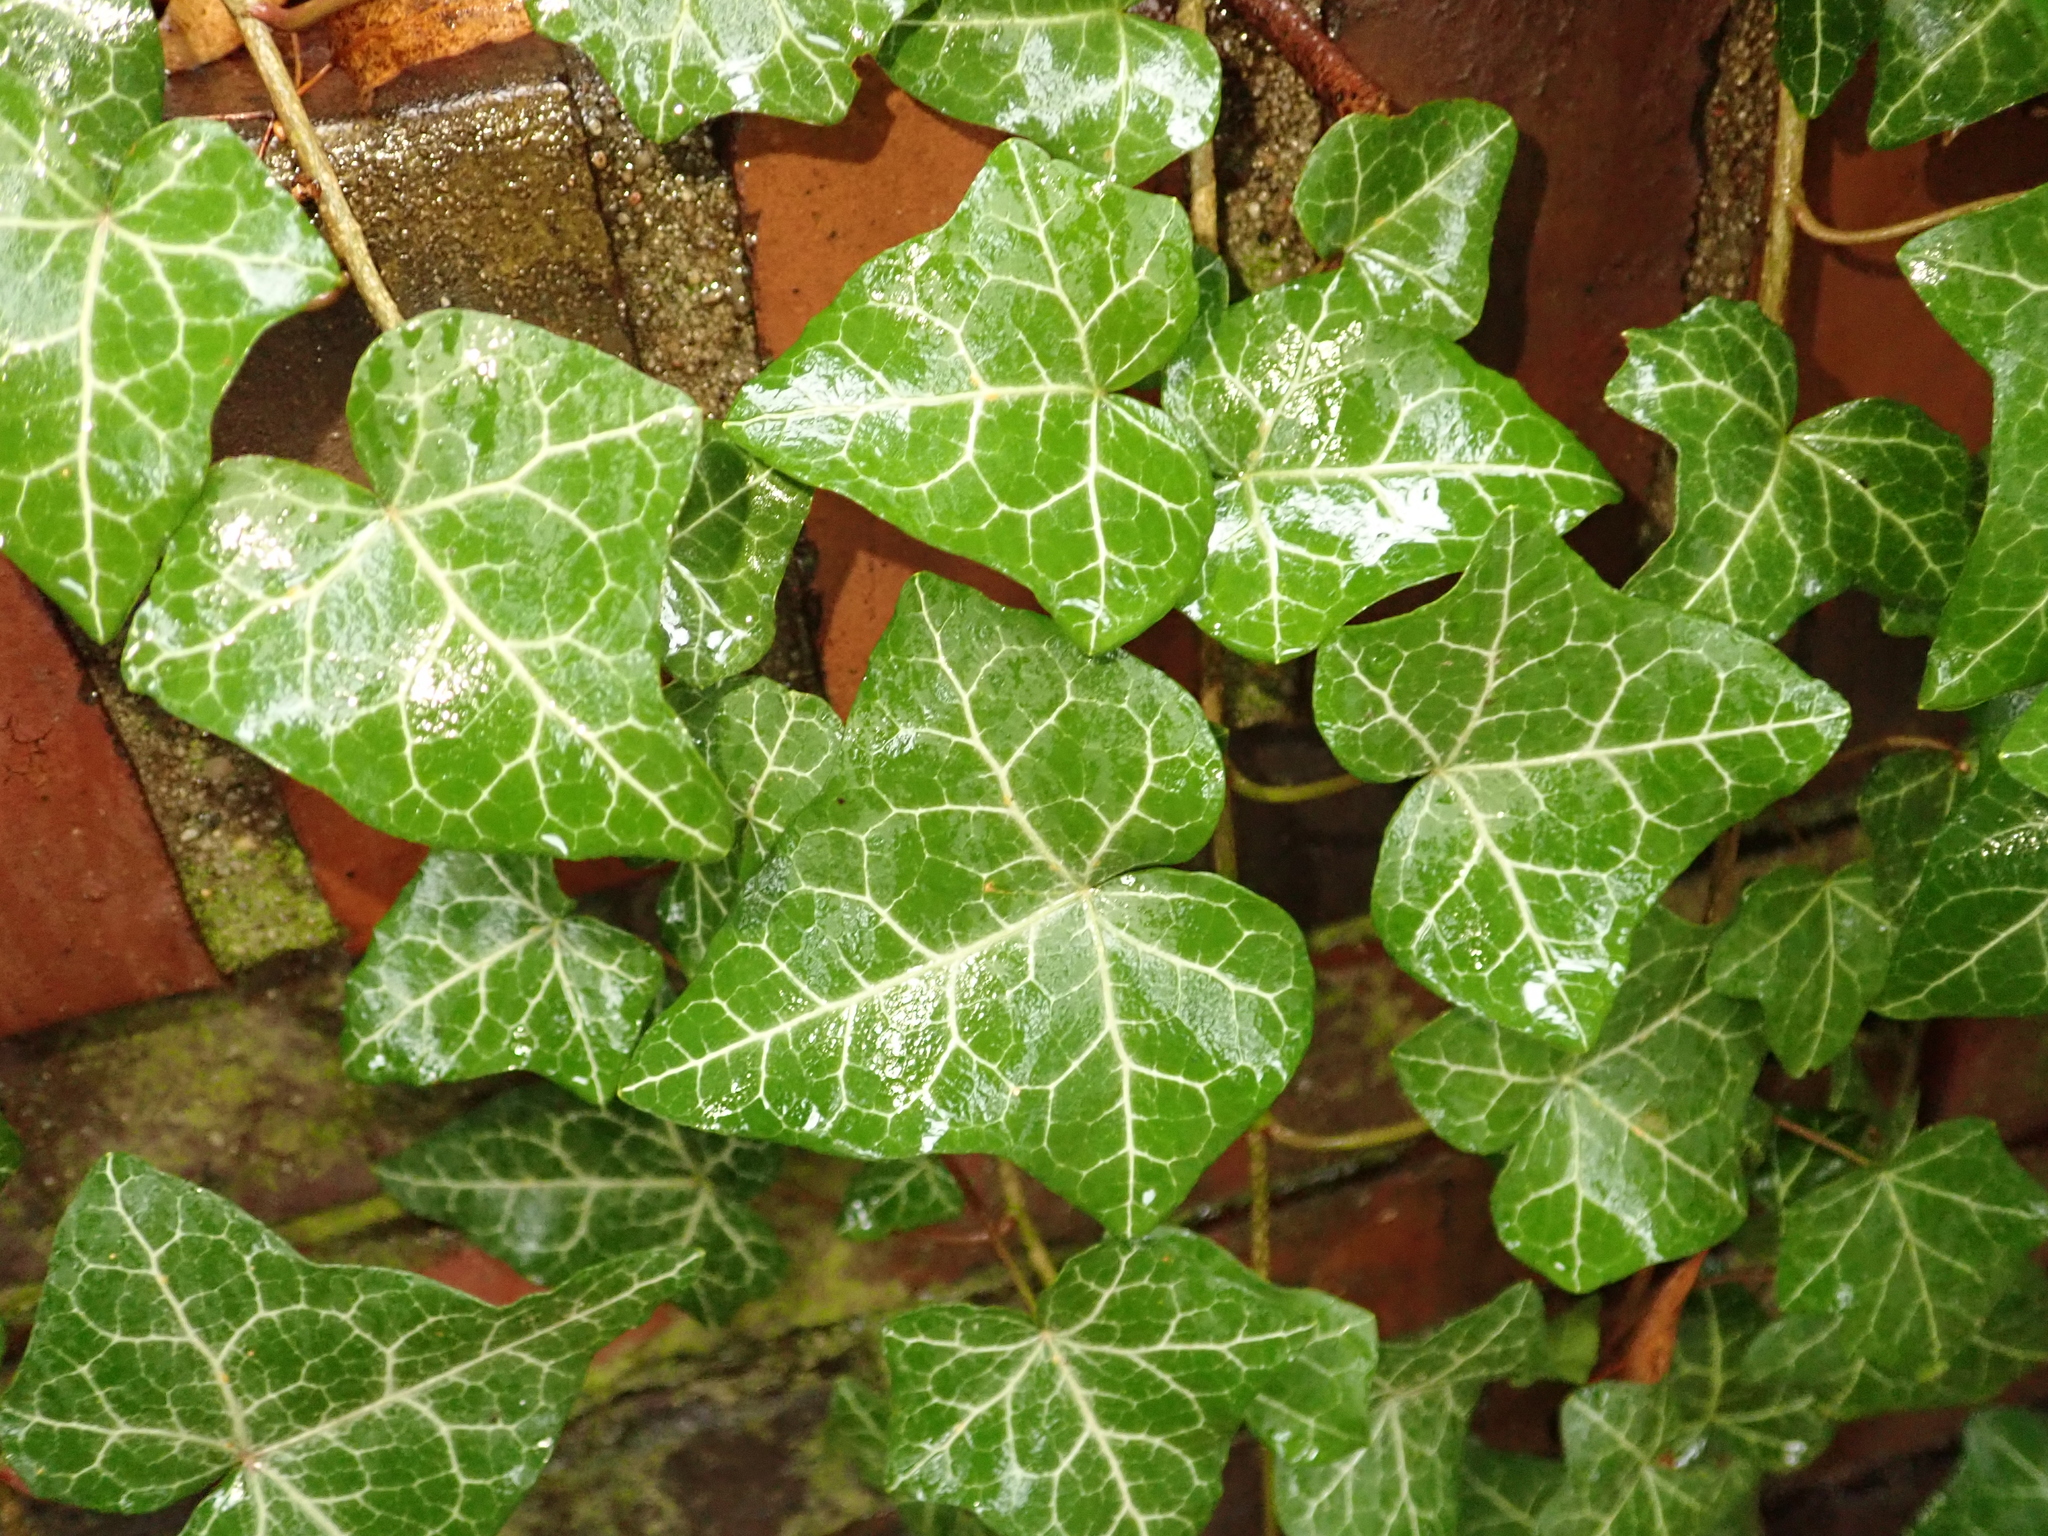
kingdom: Plantae
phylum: Tracheophyta
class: Magnoliopsida
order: Apiales
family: Araliaceae
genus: Hedera
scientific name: Hedera helix
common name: Ivy
